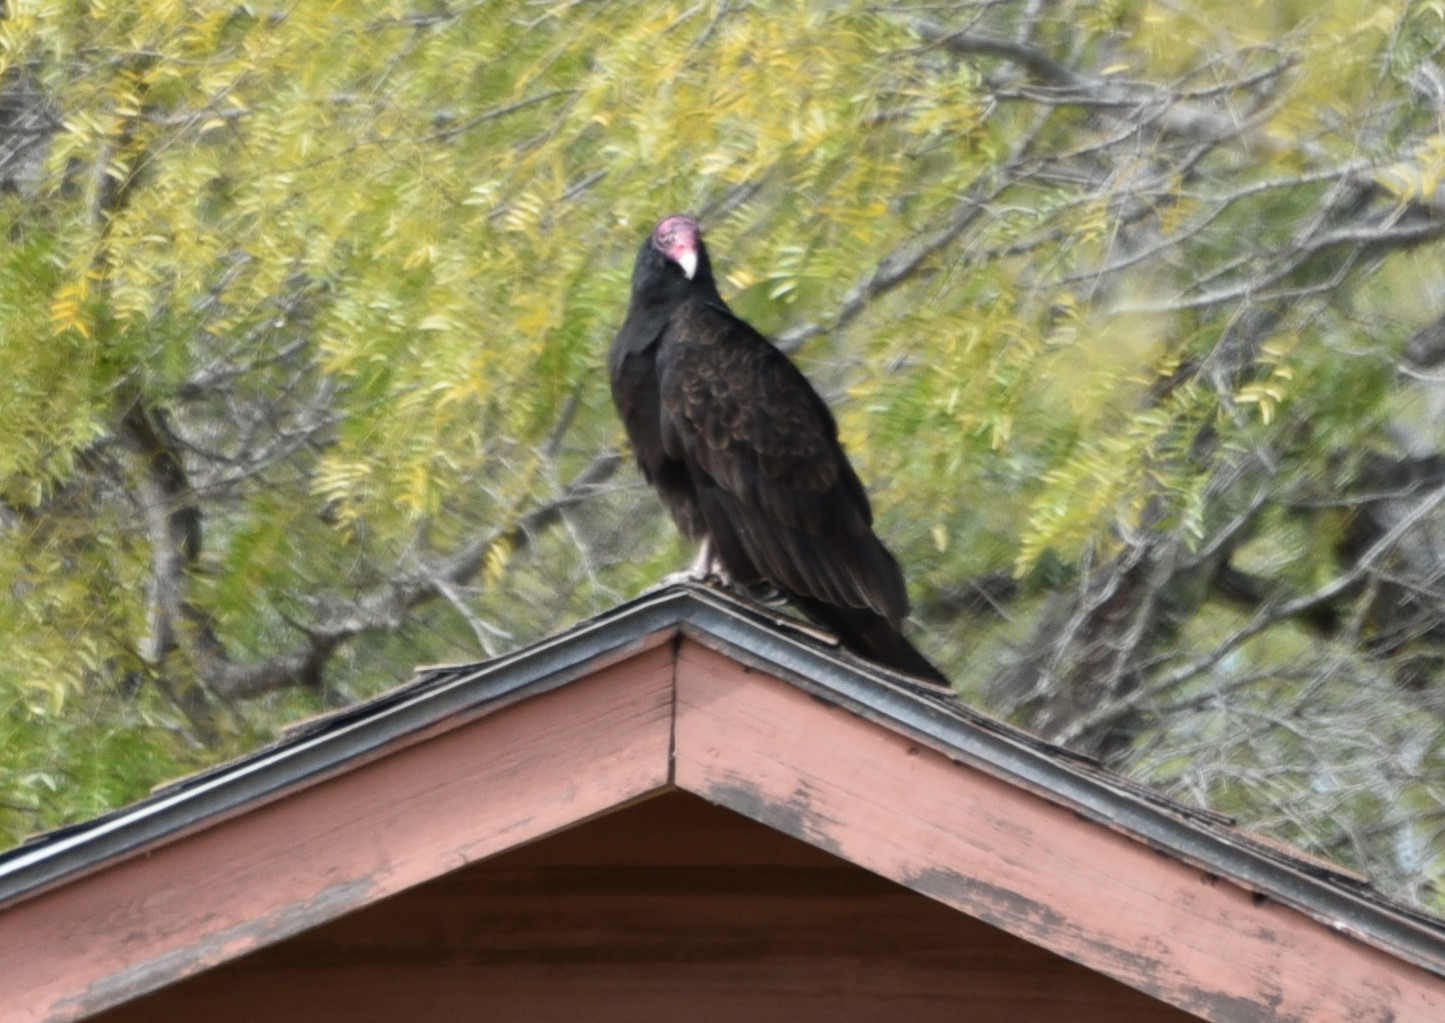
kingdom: Animalia
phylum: Chordata
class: Aves
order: Accipitriformes
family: Cathartidae
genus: Cathartes
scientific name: Cathartes aura
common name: Turkey vulture
